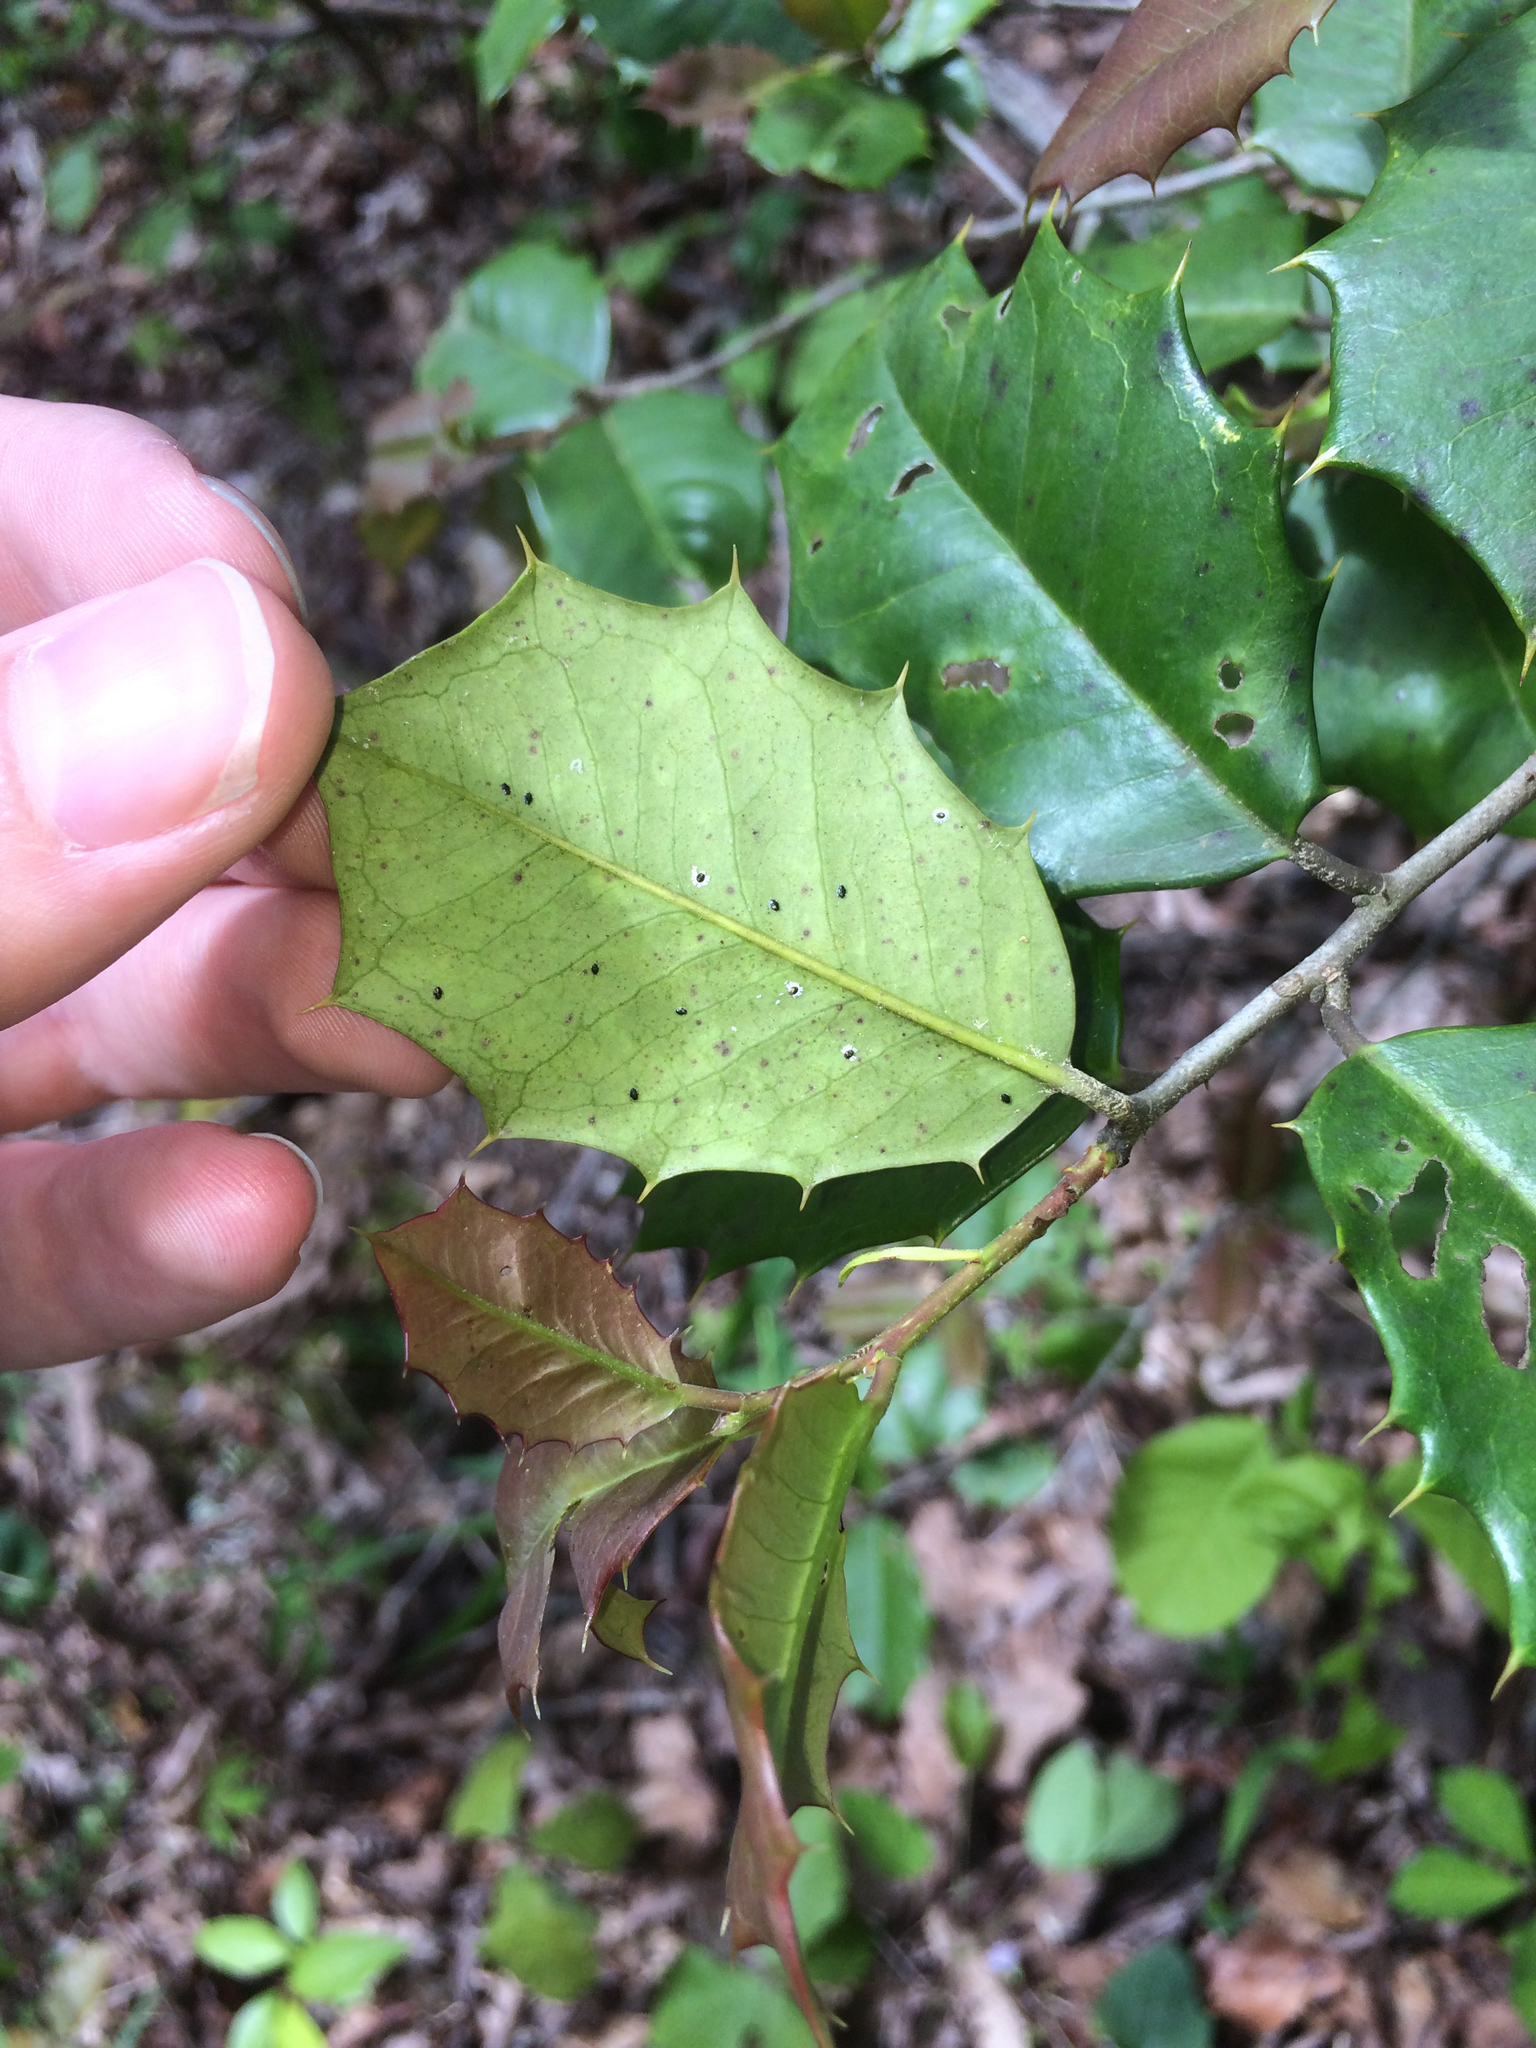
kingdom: Plantae
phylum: Tracheophyta
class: Magnoliopsida
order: Aquifoliales
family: Aquifoliaceae
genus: Ilex
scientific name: Ilex opaca
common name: American holly
